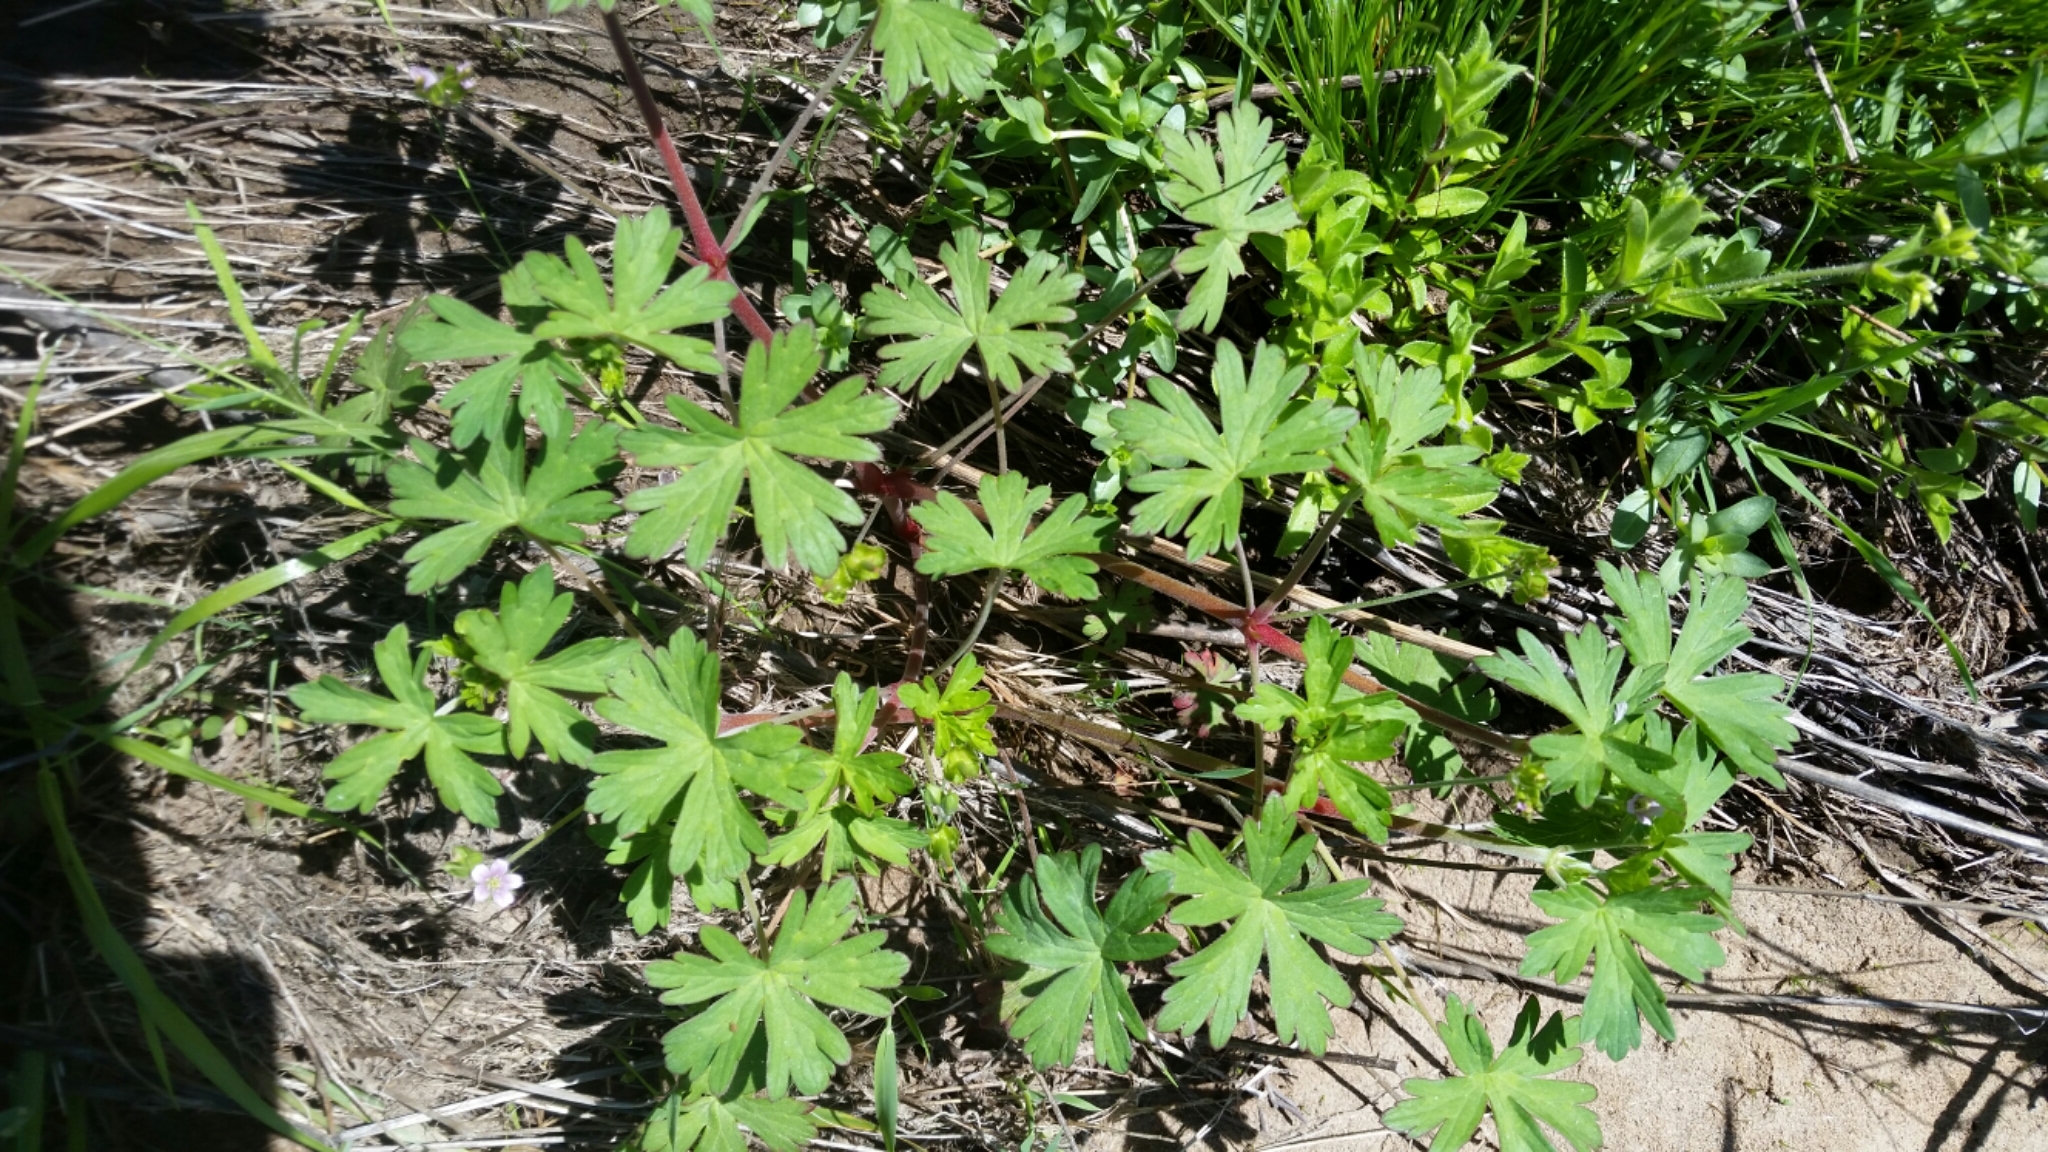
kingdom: Plantae
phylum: Tracheophyta
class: Magnoliopsida
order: Geraniales
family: Geraniaceae
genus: Geranium
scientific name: Geranium carolinianum
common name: Carolina crane's-bill
